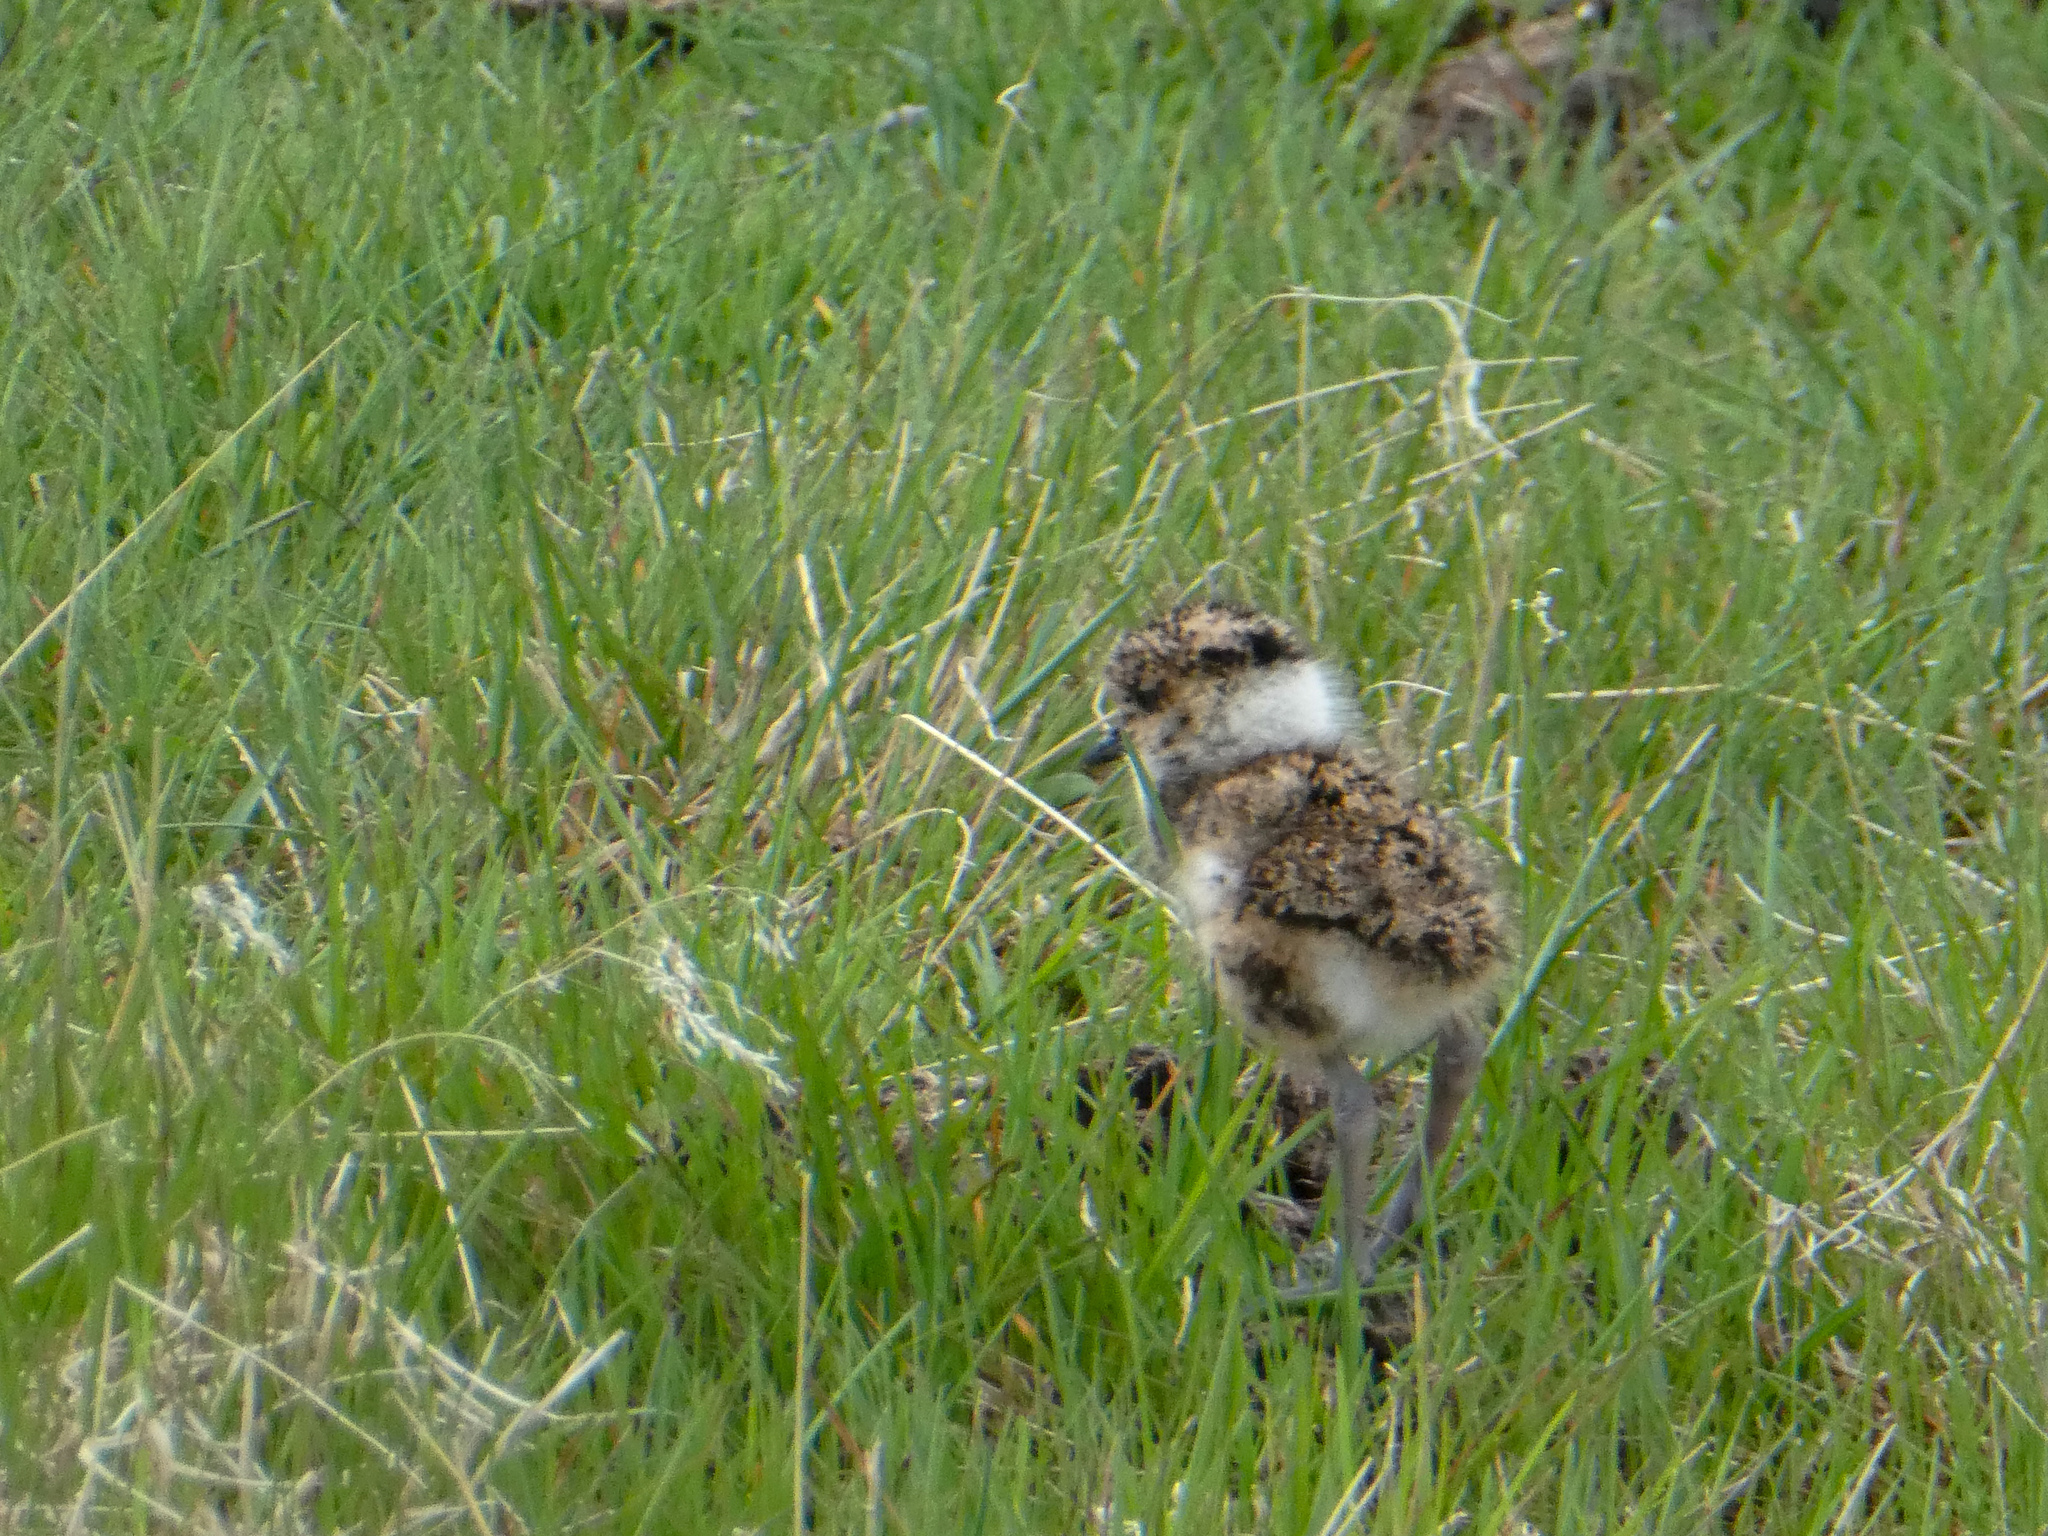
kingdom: Animalia
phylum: Chordata
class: Aves
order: Charadriiformes
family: Charadriidae
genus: Vanellus
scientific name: Vanellus chilensis
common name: Southern lapwing
